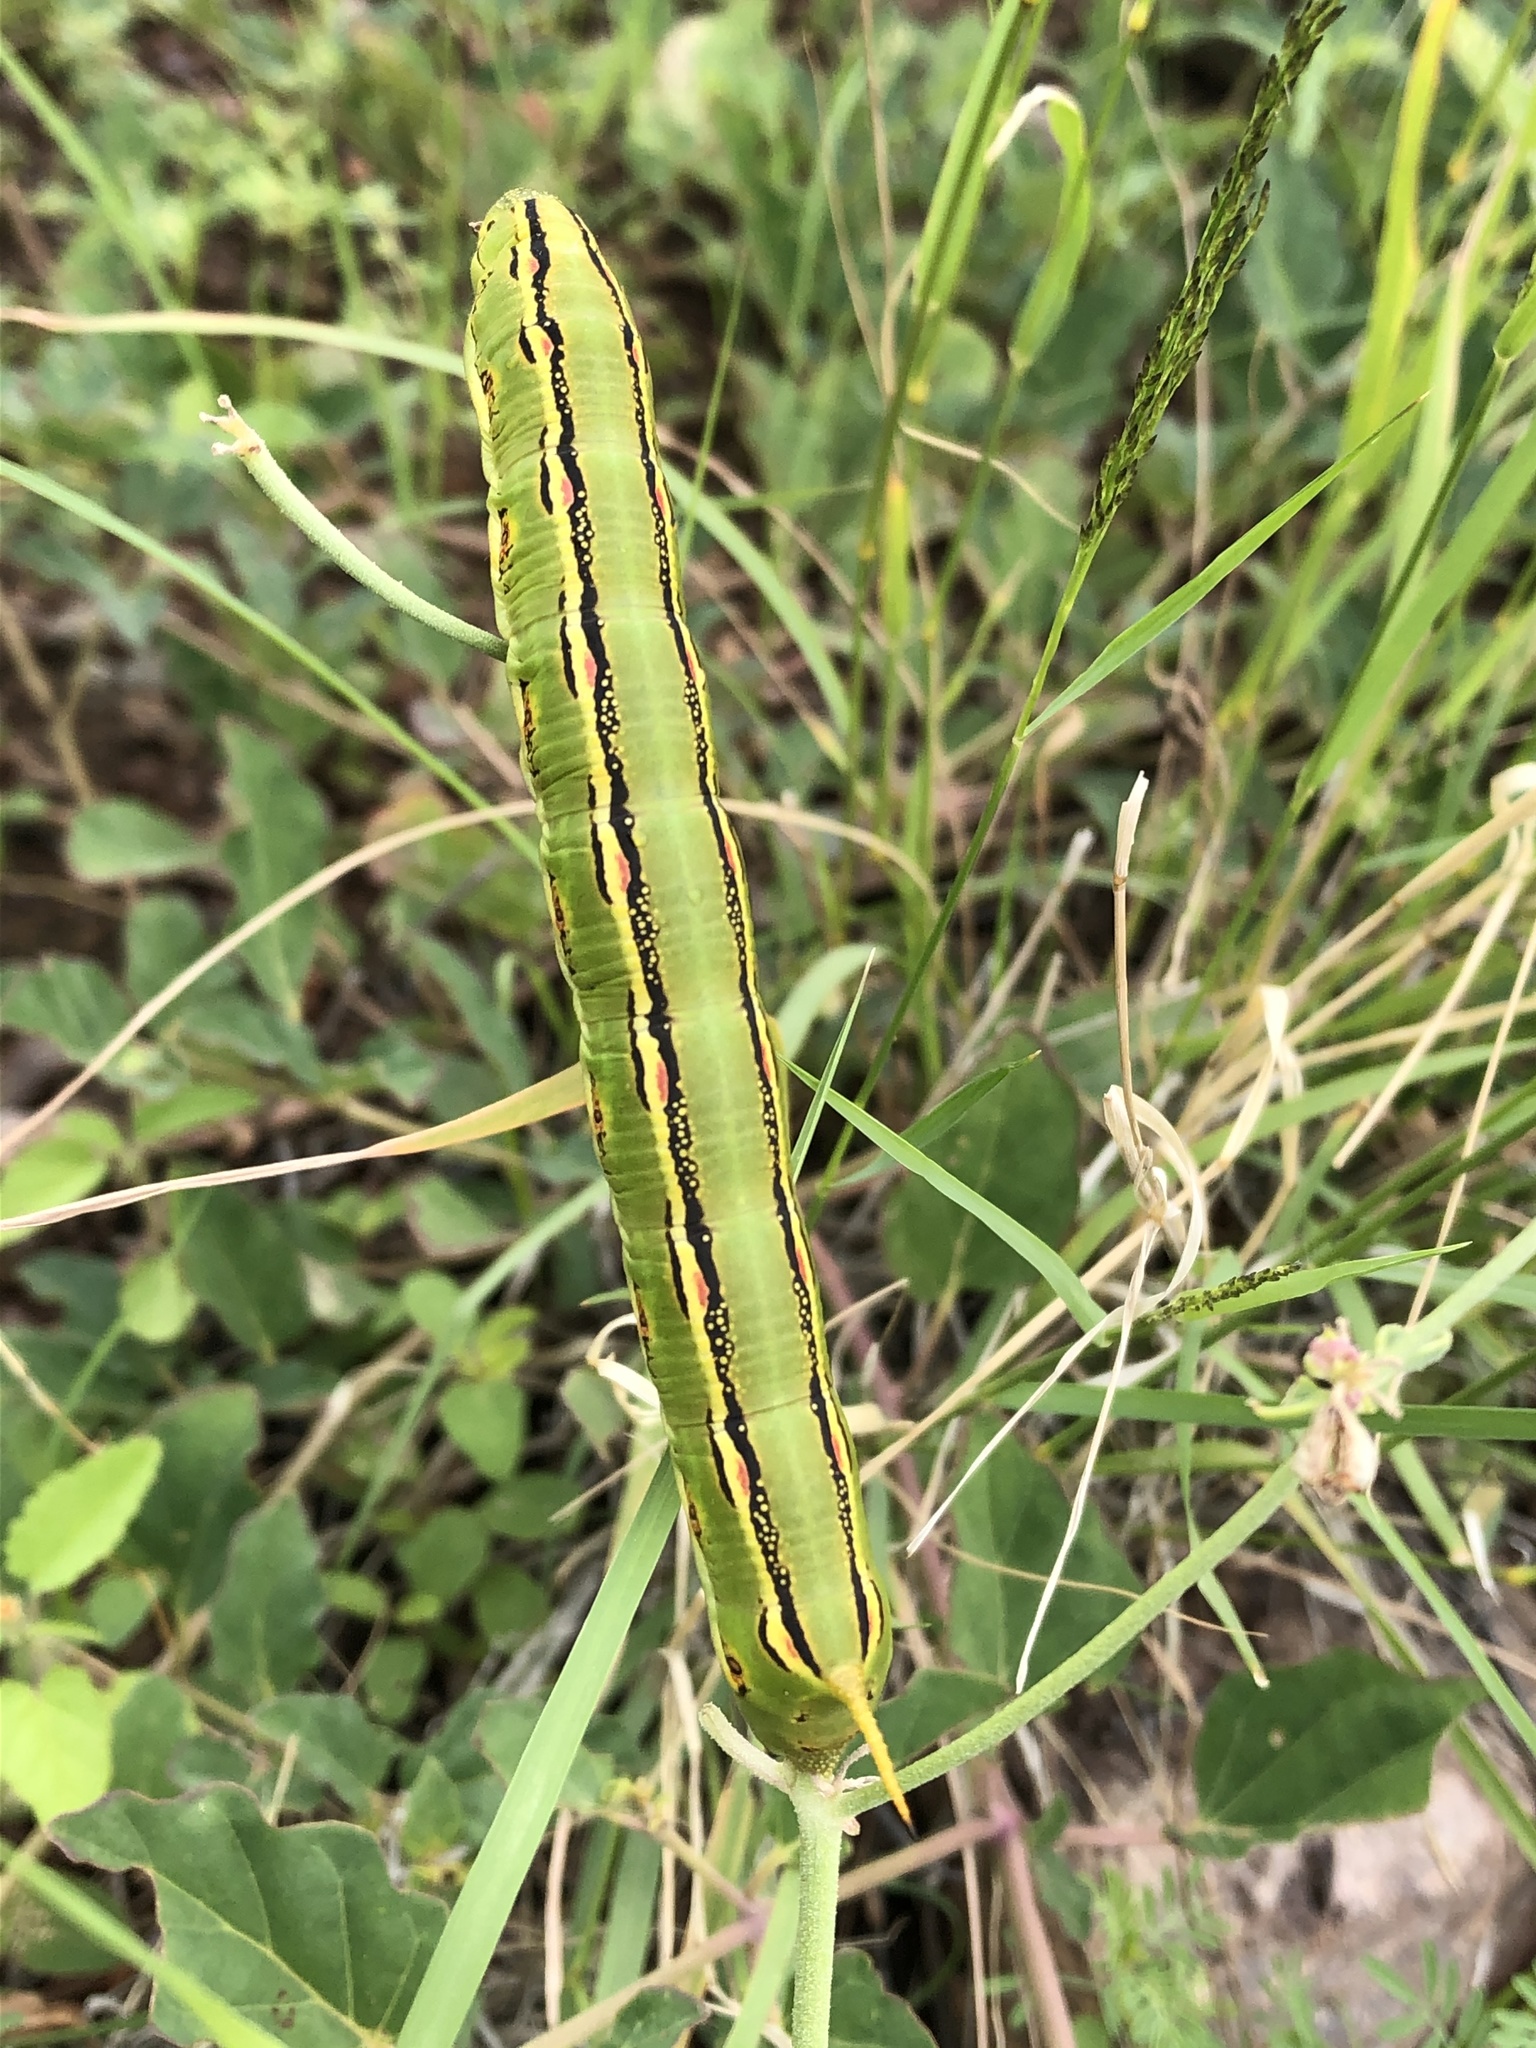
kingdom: Animalia
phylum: Arthropoda
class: Insecta
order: Lepidoptera
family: Sphingidae
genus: Hyles
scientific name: Hyles lineata
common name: White-lined sphinx
